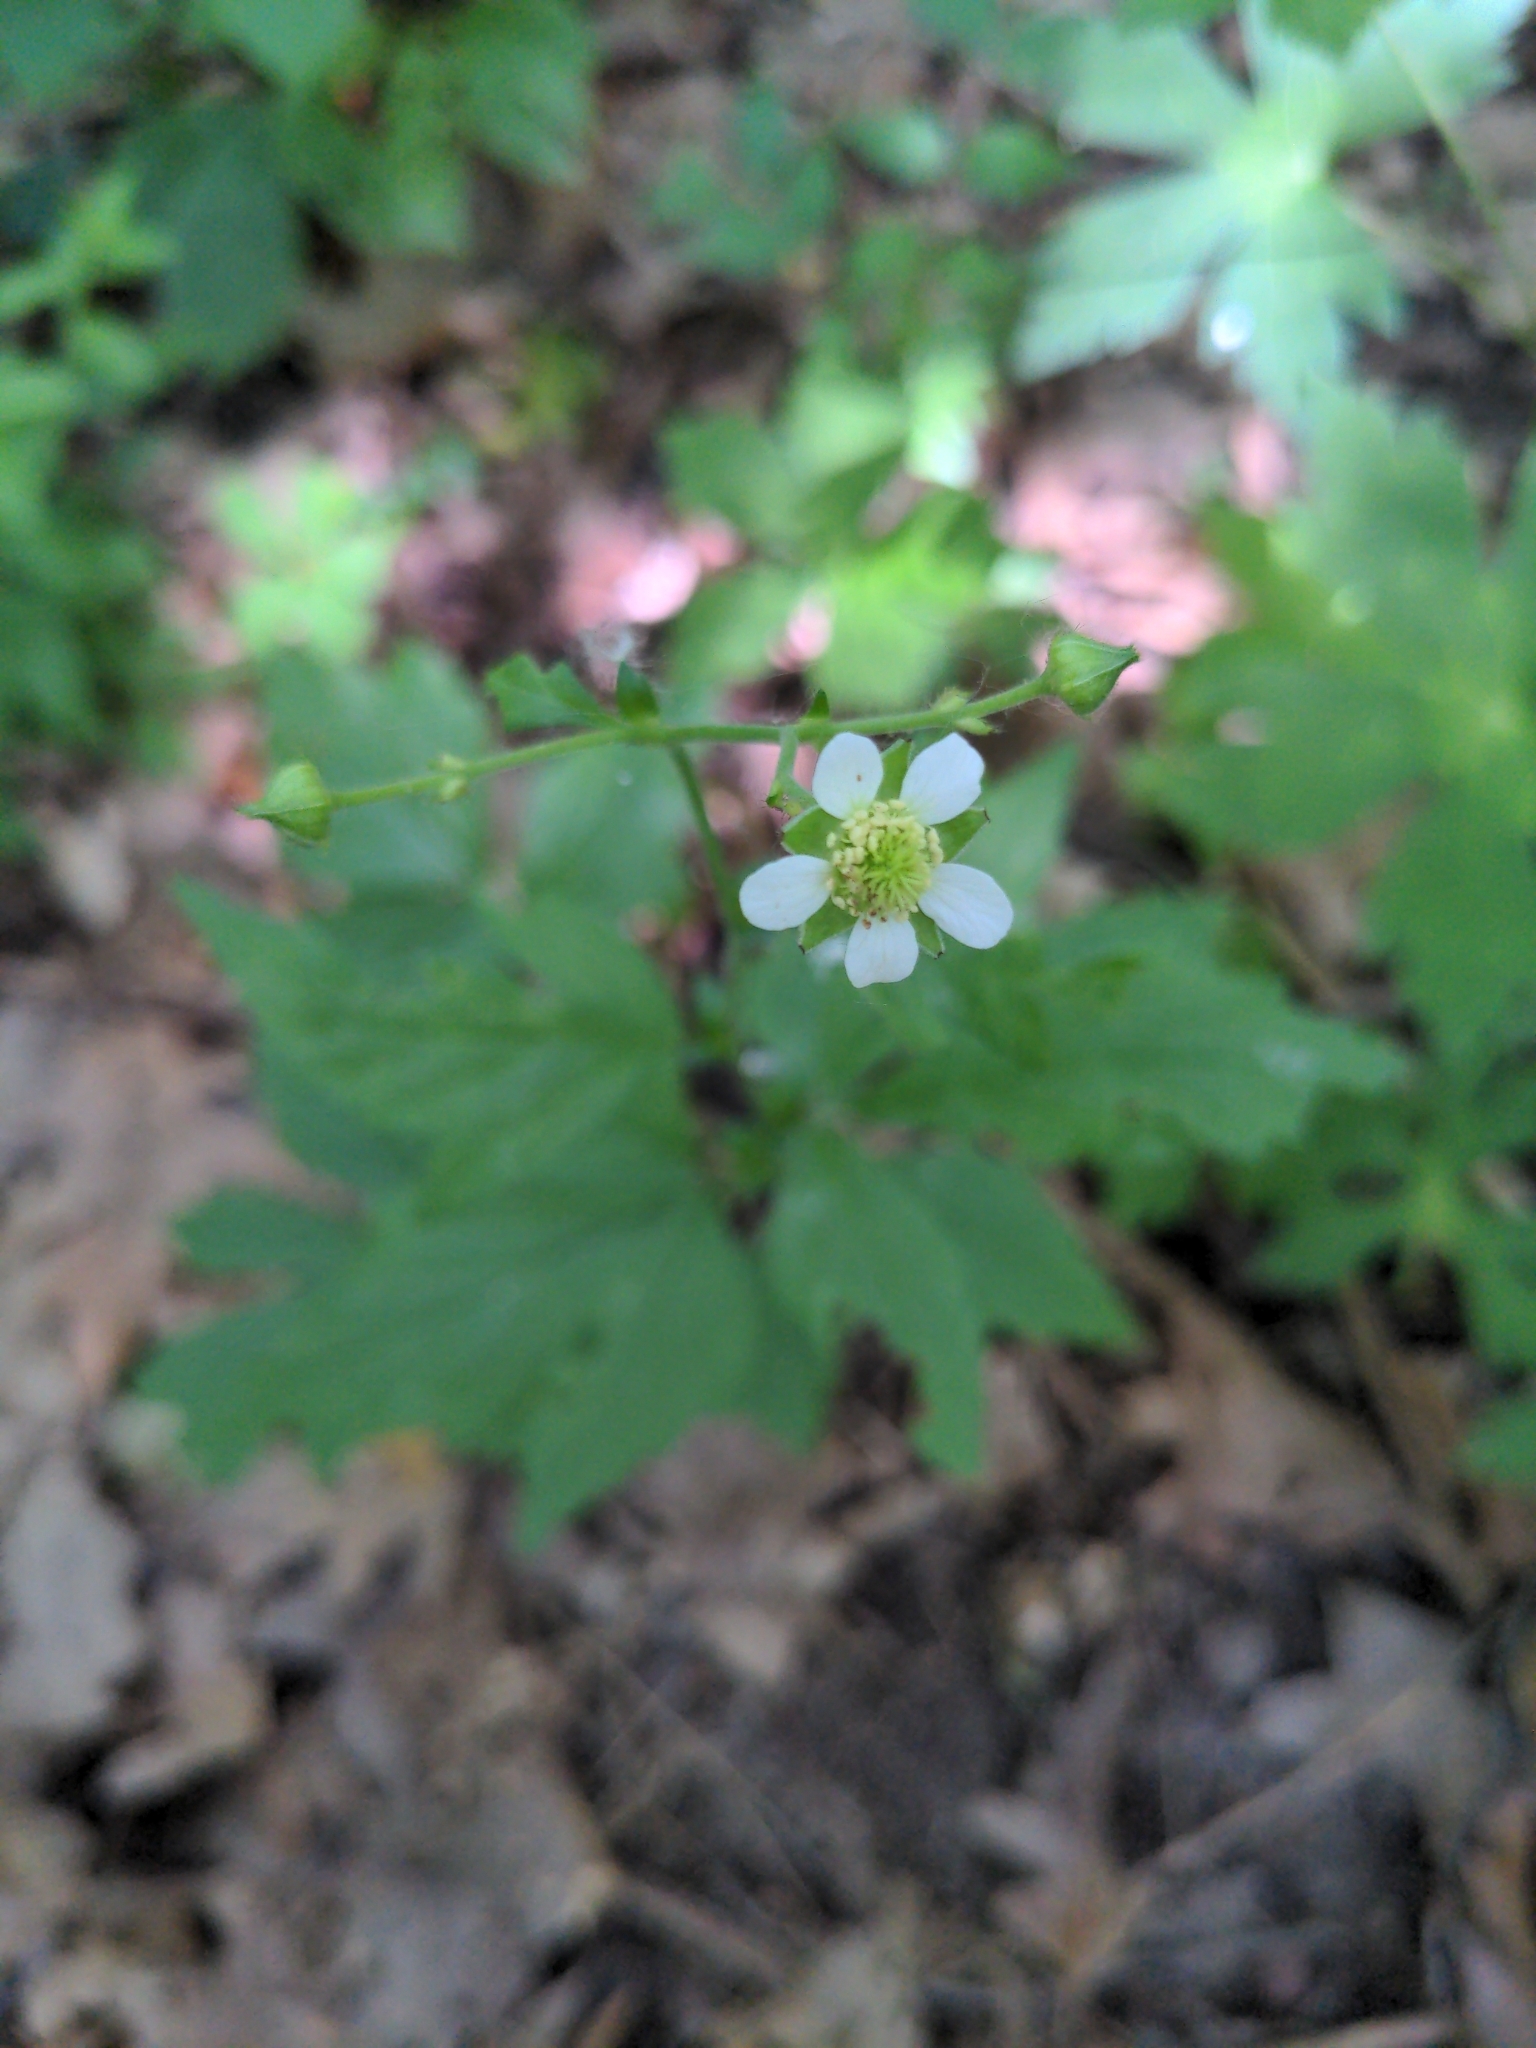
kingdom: Plantae
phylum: Tracheophyta
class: Magnoliopsida
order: Rosales
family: Rosaceae
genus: Geum
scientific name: Geum canadense
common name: White avens
